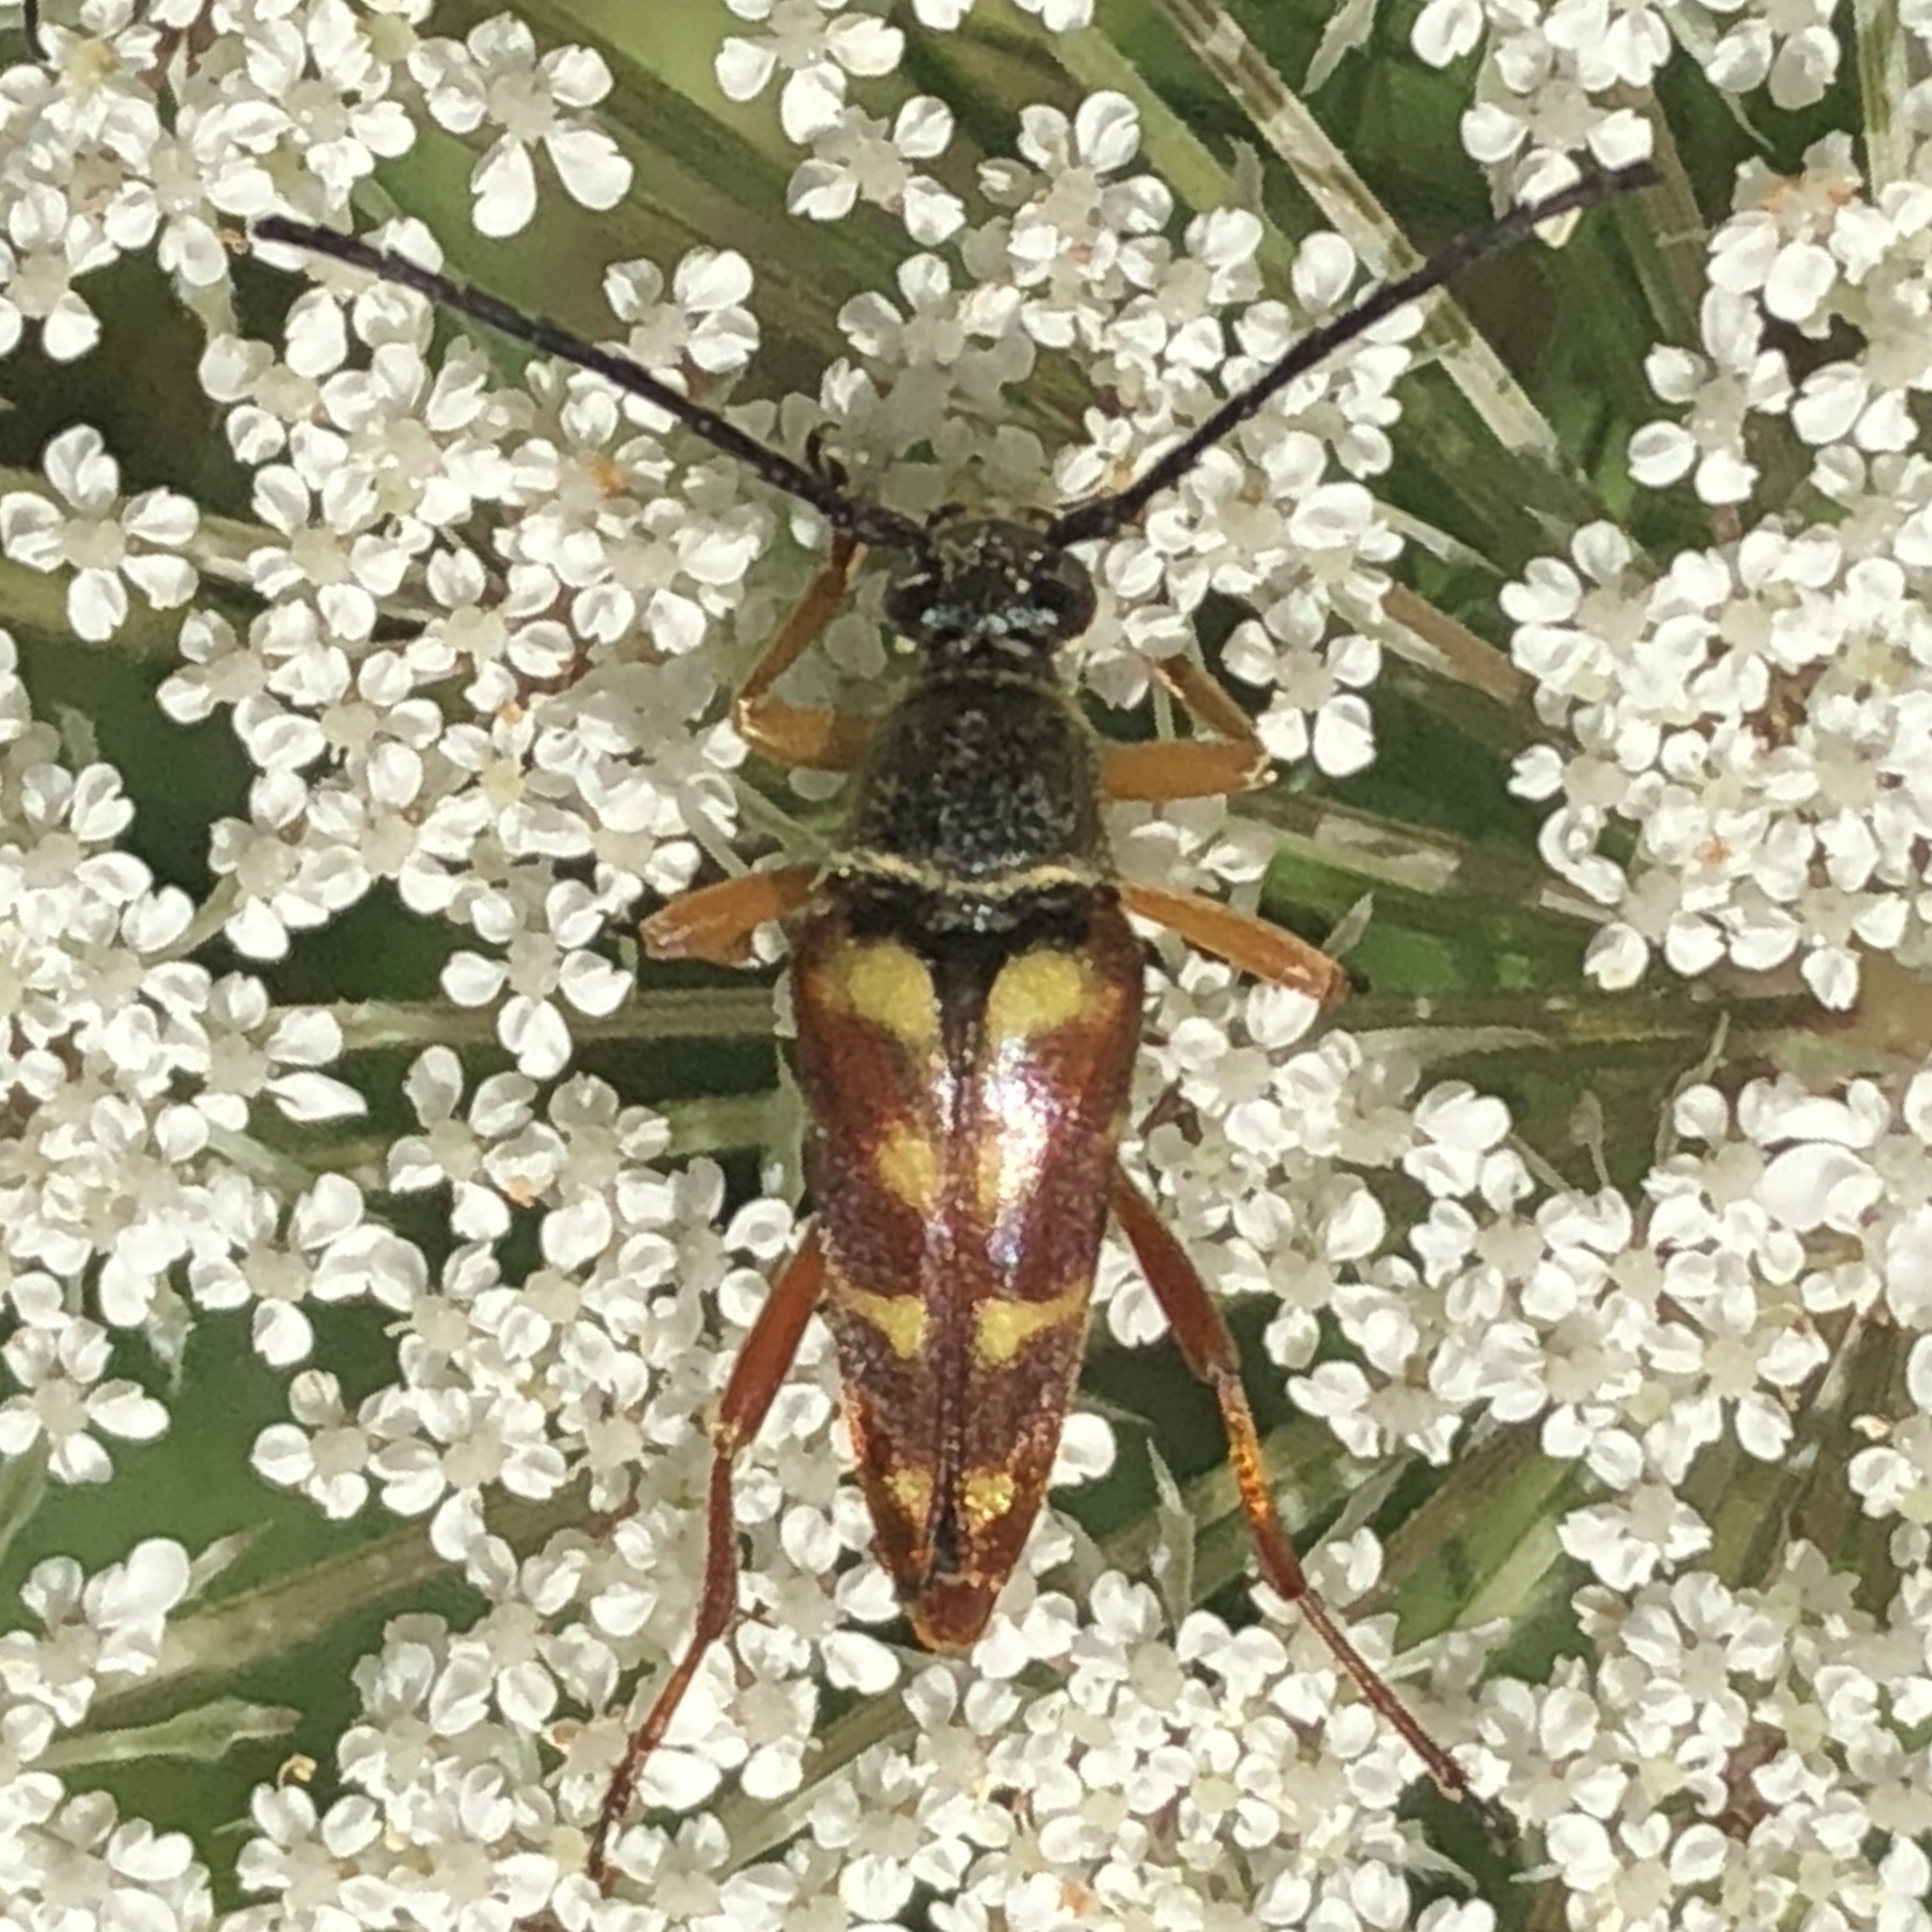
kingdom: Animalia
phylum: Arthropoda
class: Insecta
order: Coleoptera
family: Cerambycidae
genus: Typocerus
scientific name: Typocerus velutinus
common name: Banded longhorn beetle
